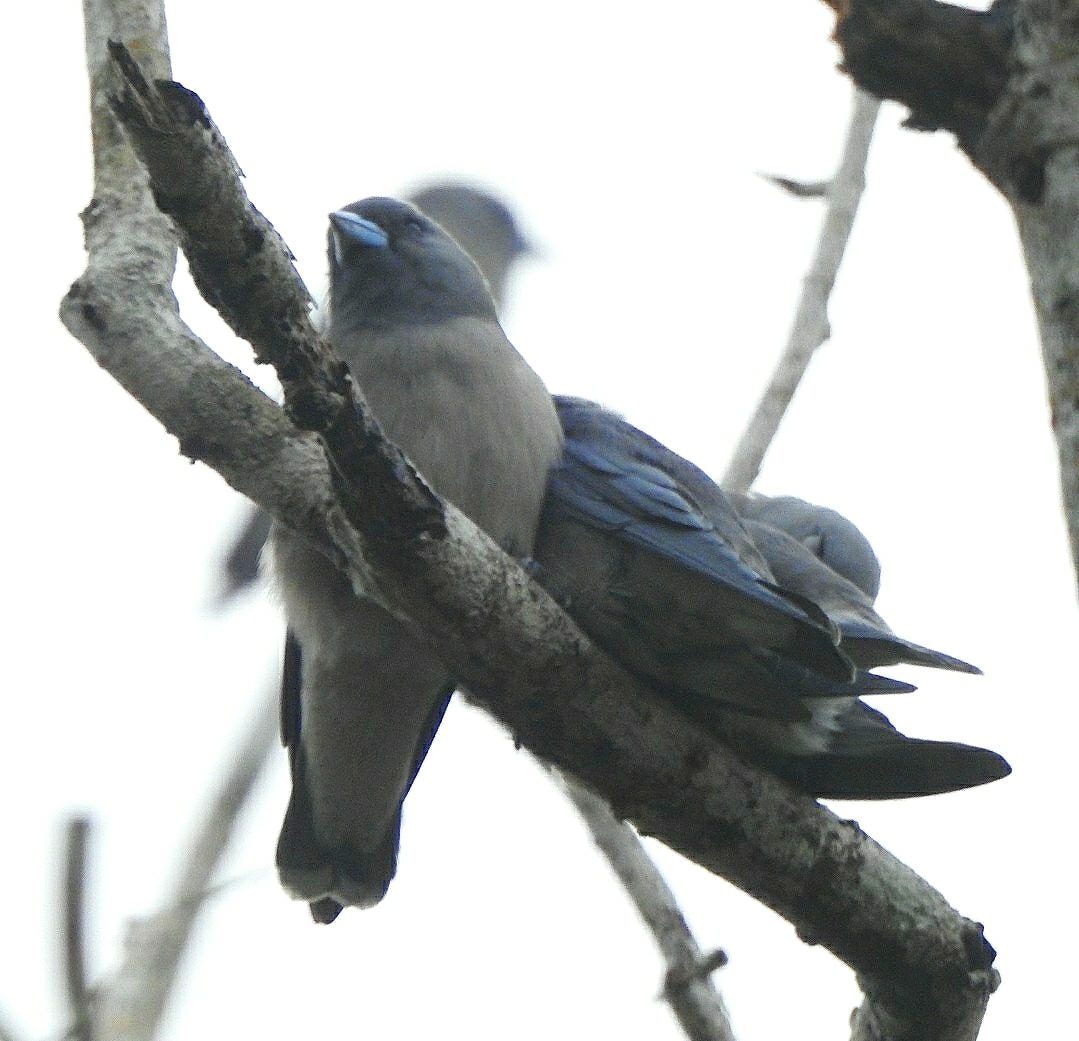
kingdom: Animalia
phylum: Chordata
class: Aves
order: Passeriformes
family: Artamidae
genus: Artamus
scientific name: Artamus fuscus
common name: Ashy woodswallow
